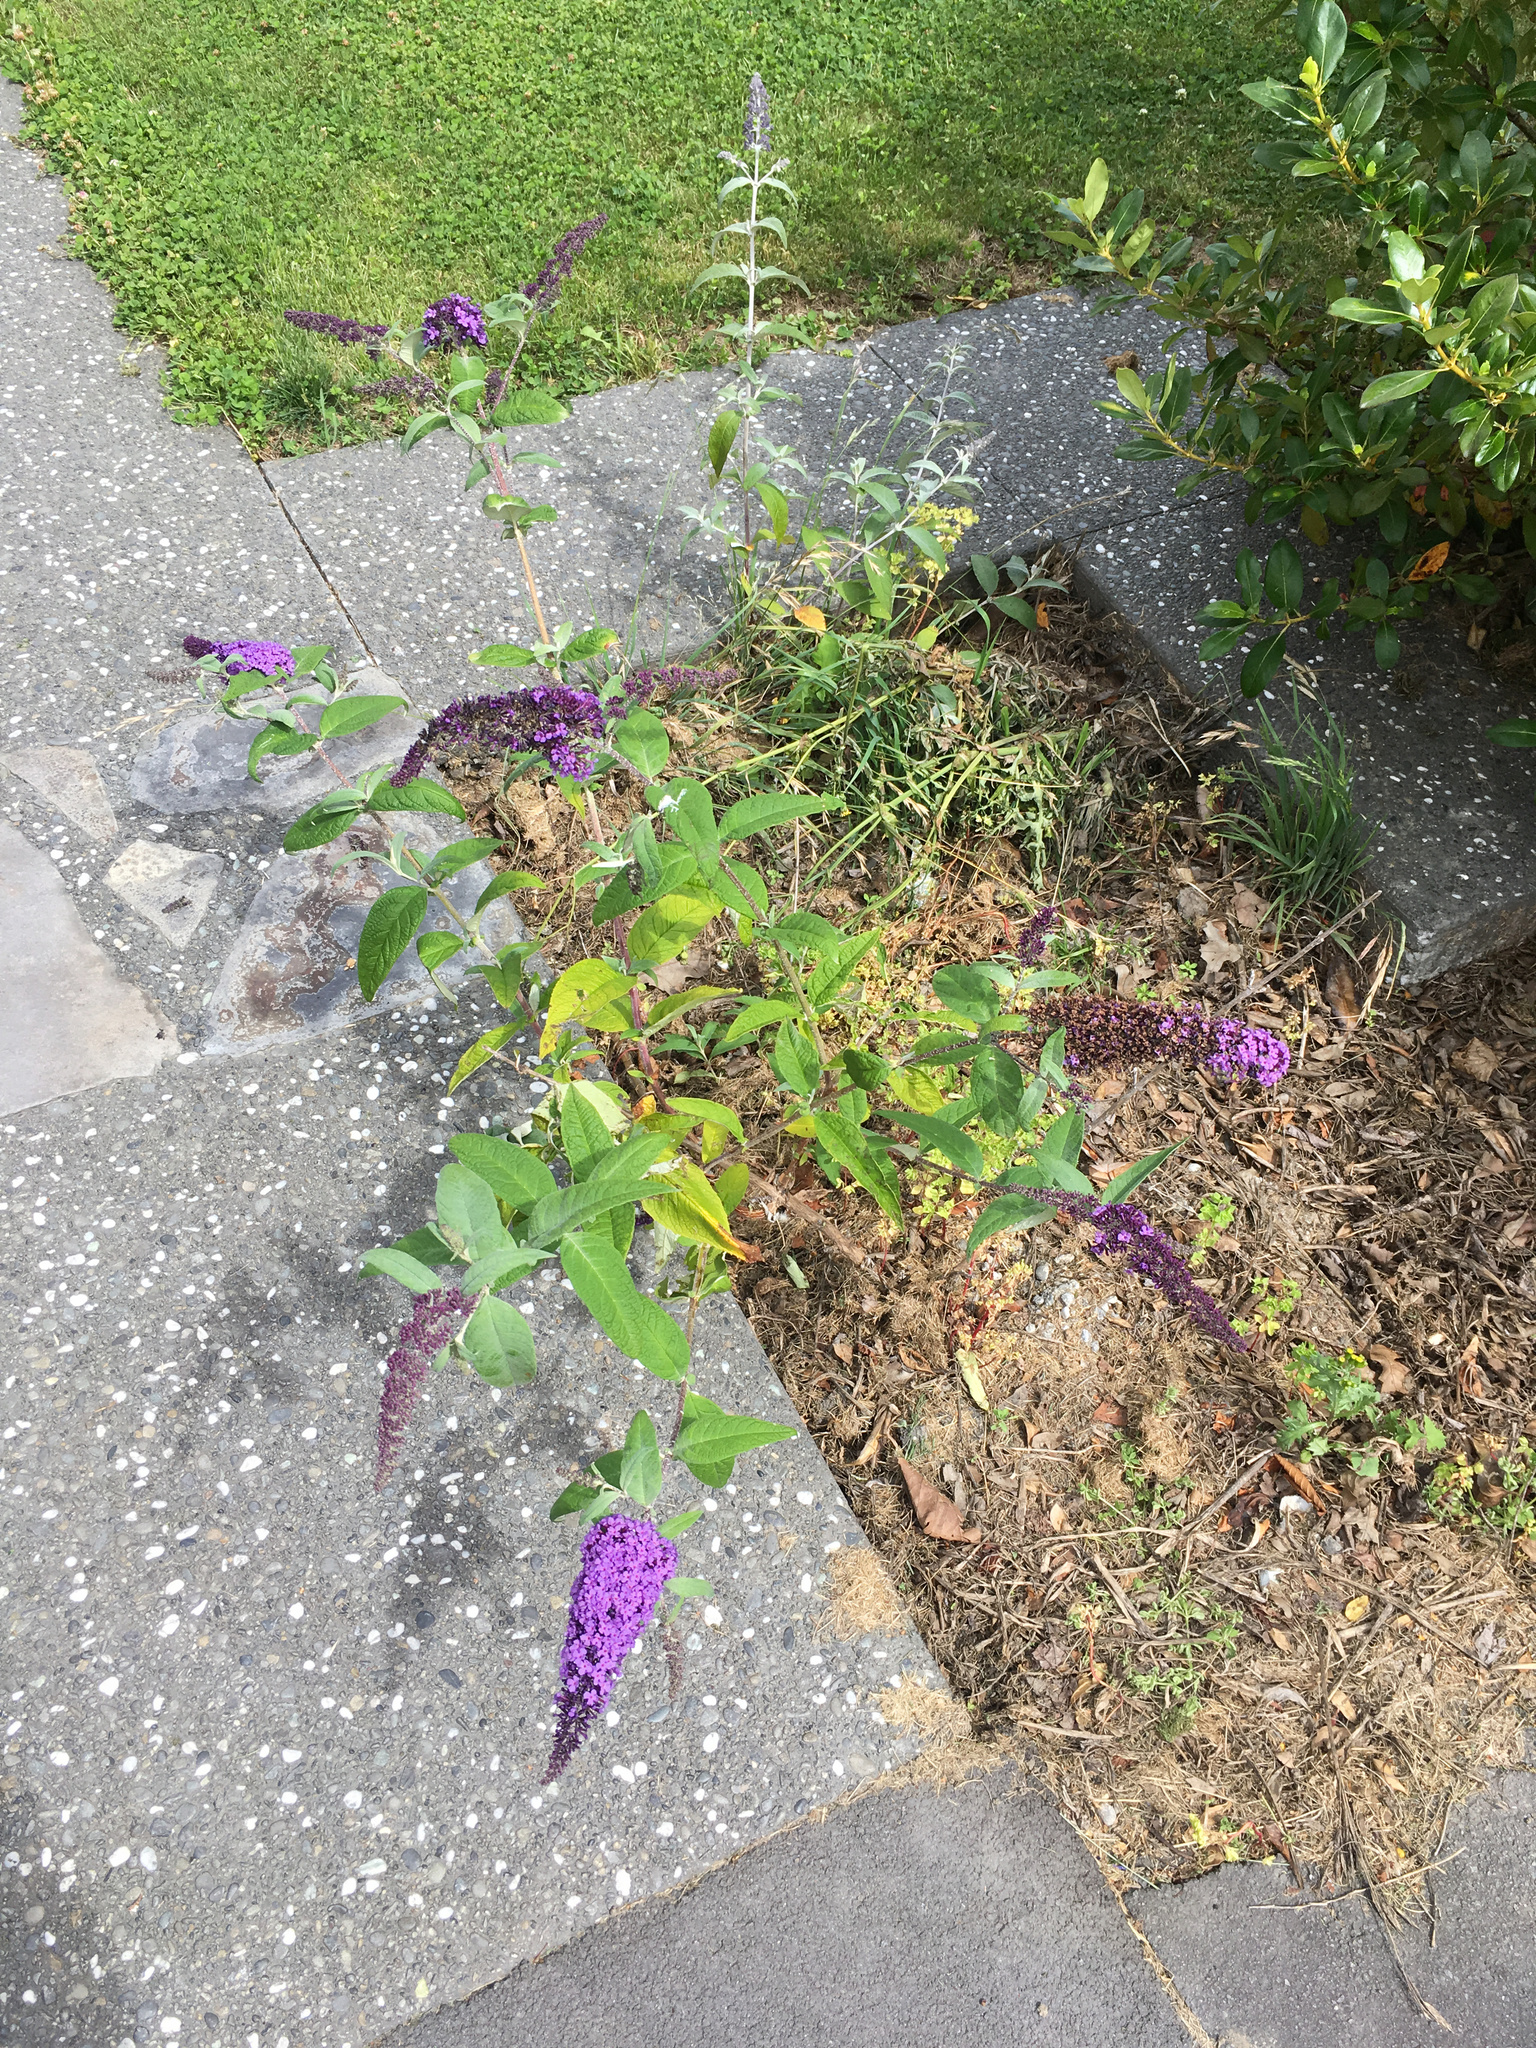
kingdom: Plantae
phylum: Tracheophyta
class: Magnoliopsida
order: Lamiales
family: Scrophulariaceae
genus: Buddleja
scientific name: Buddleja davidii
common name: Butterfly-bush
